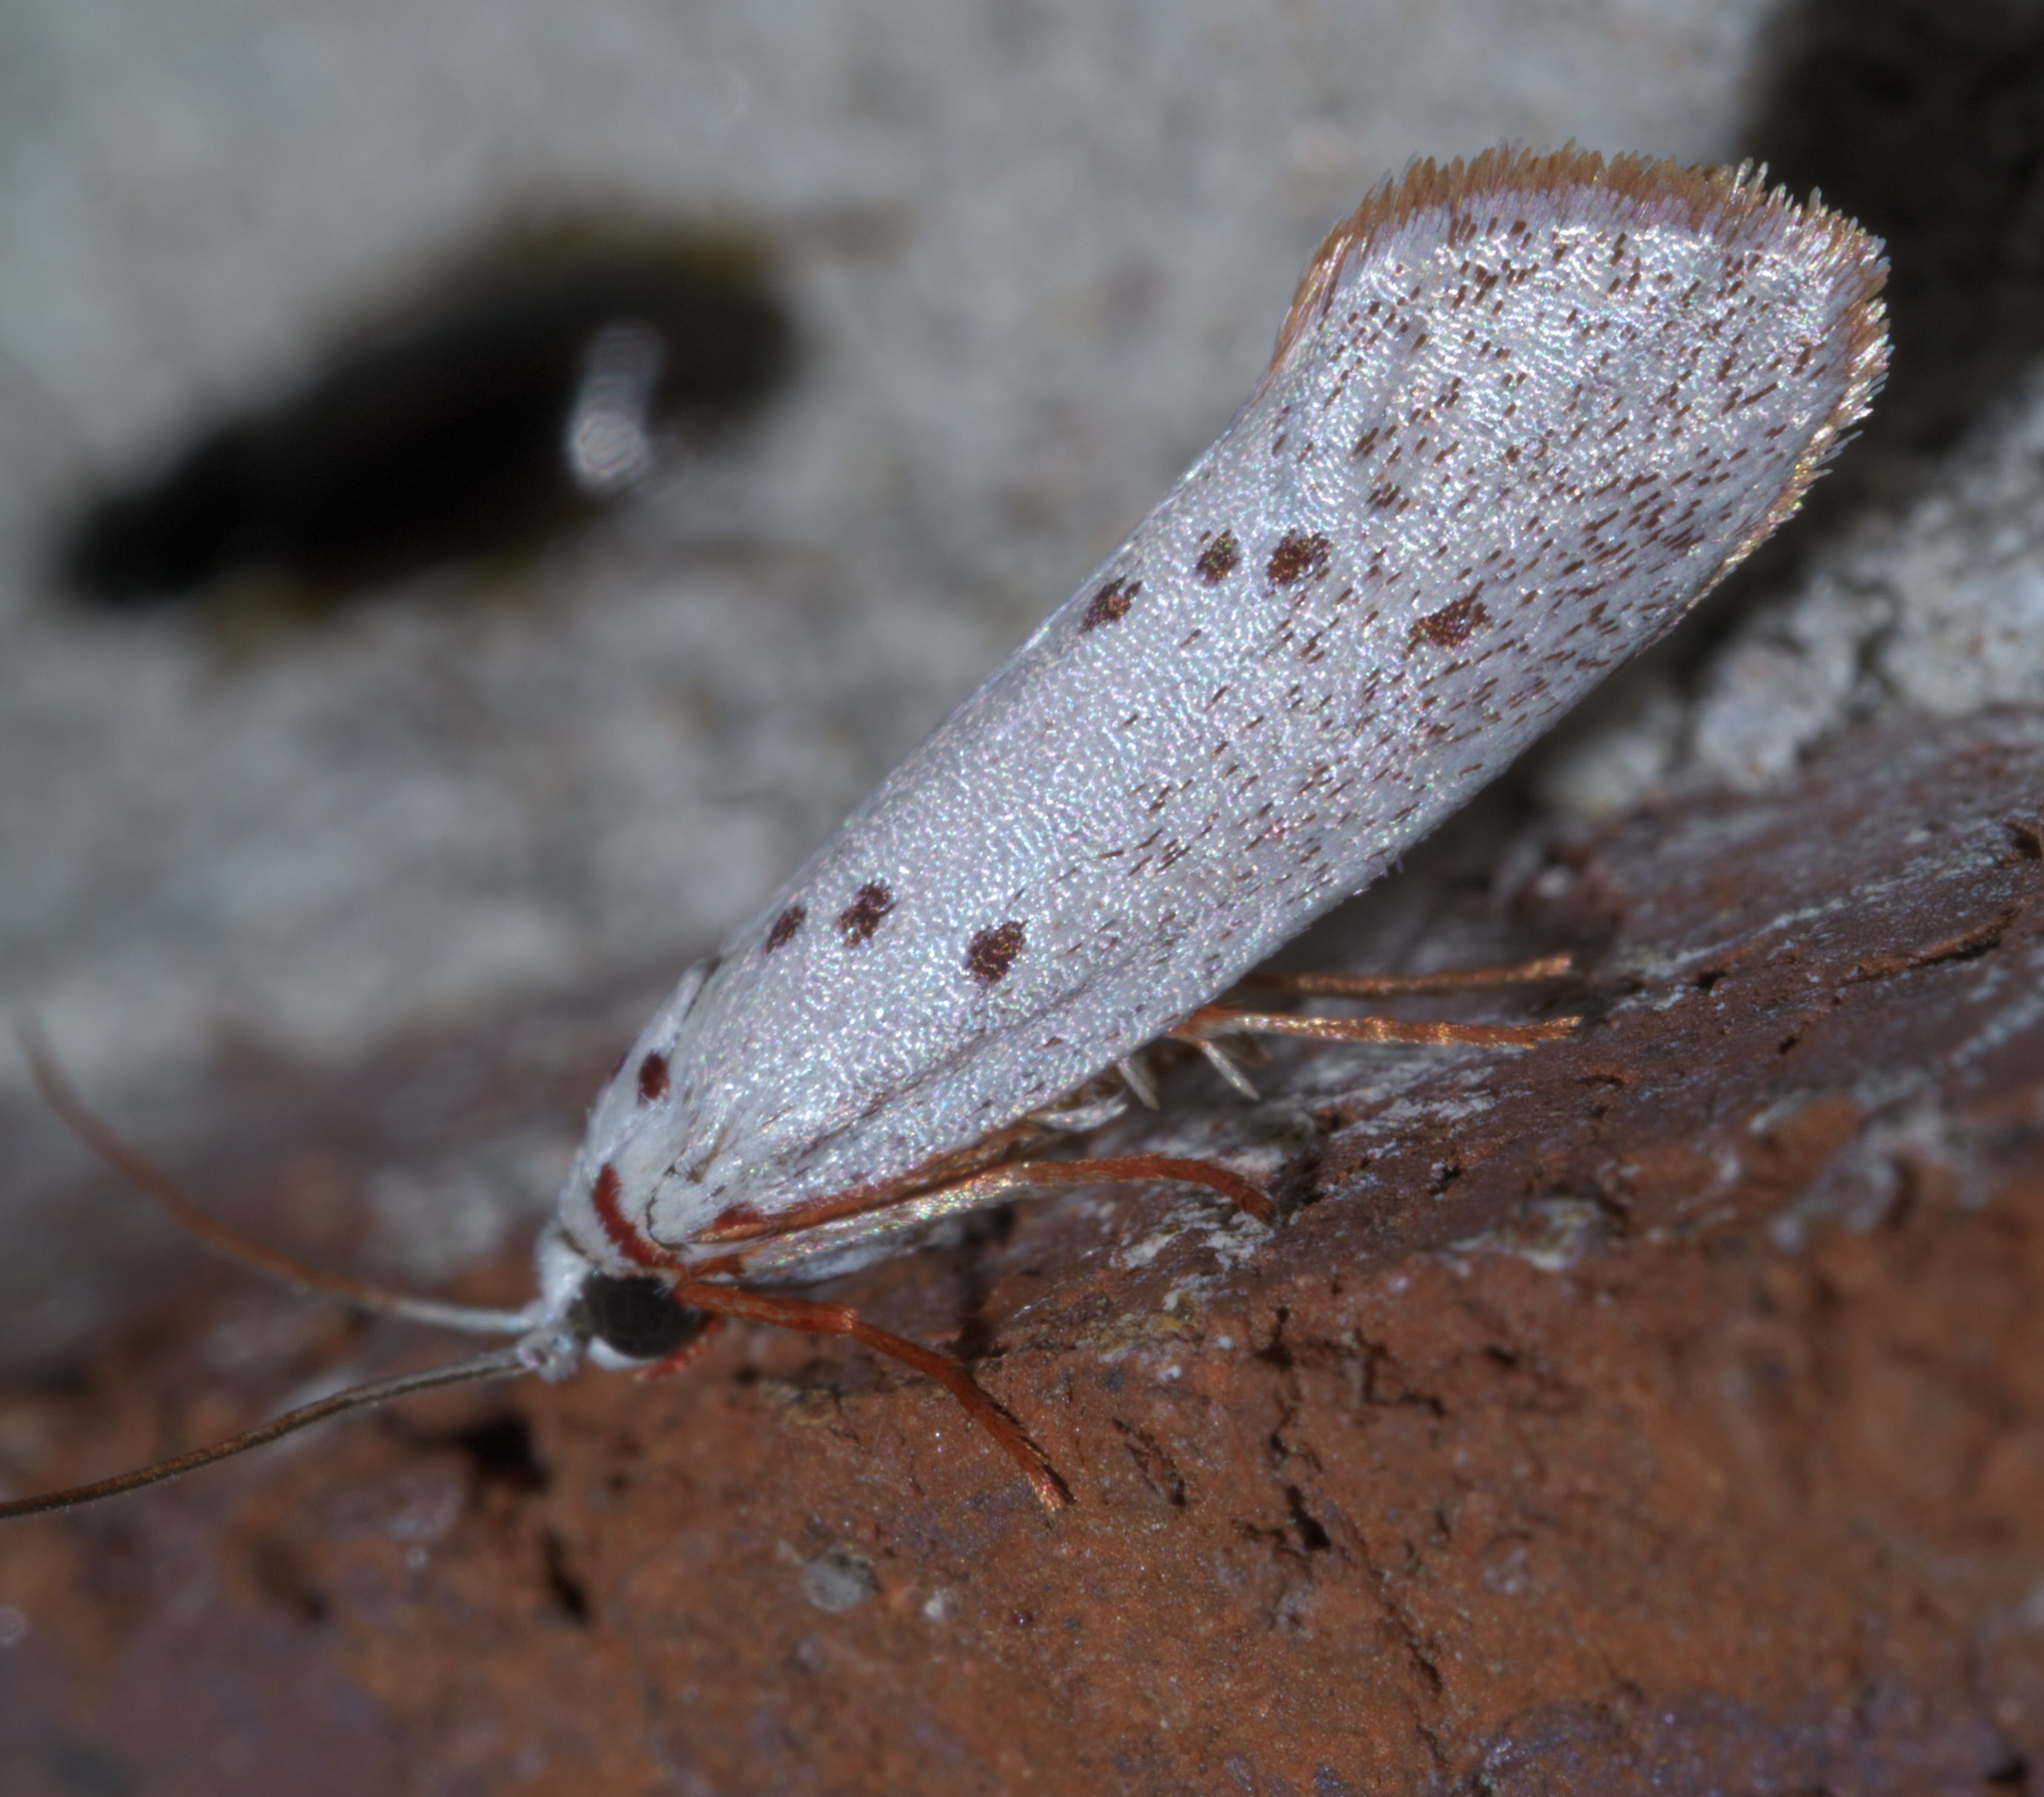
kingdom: Animalia
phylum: Arthropoda
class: Insecta
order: Lepidoptera
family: Lacturidae
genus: Lactura
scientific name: Lactura
